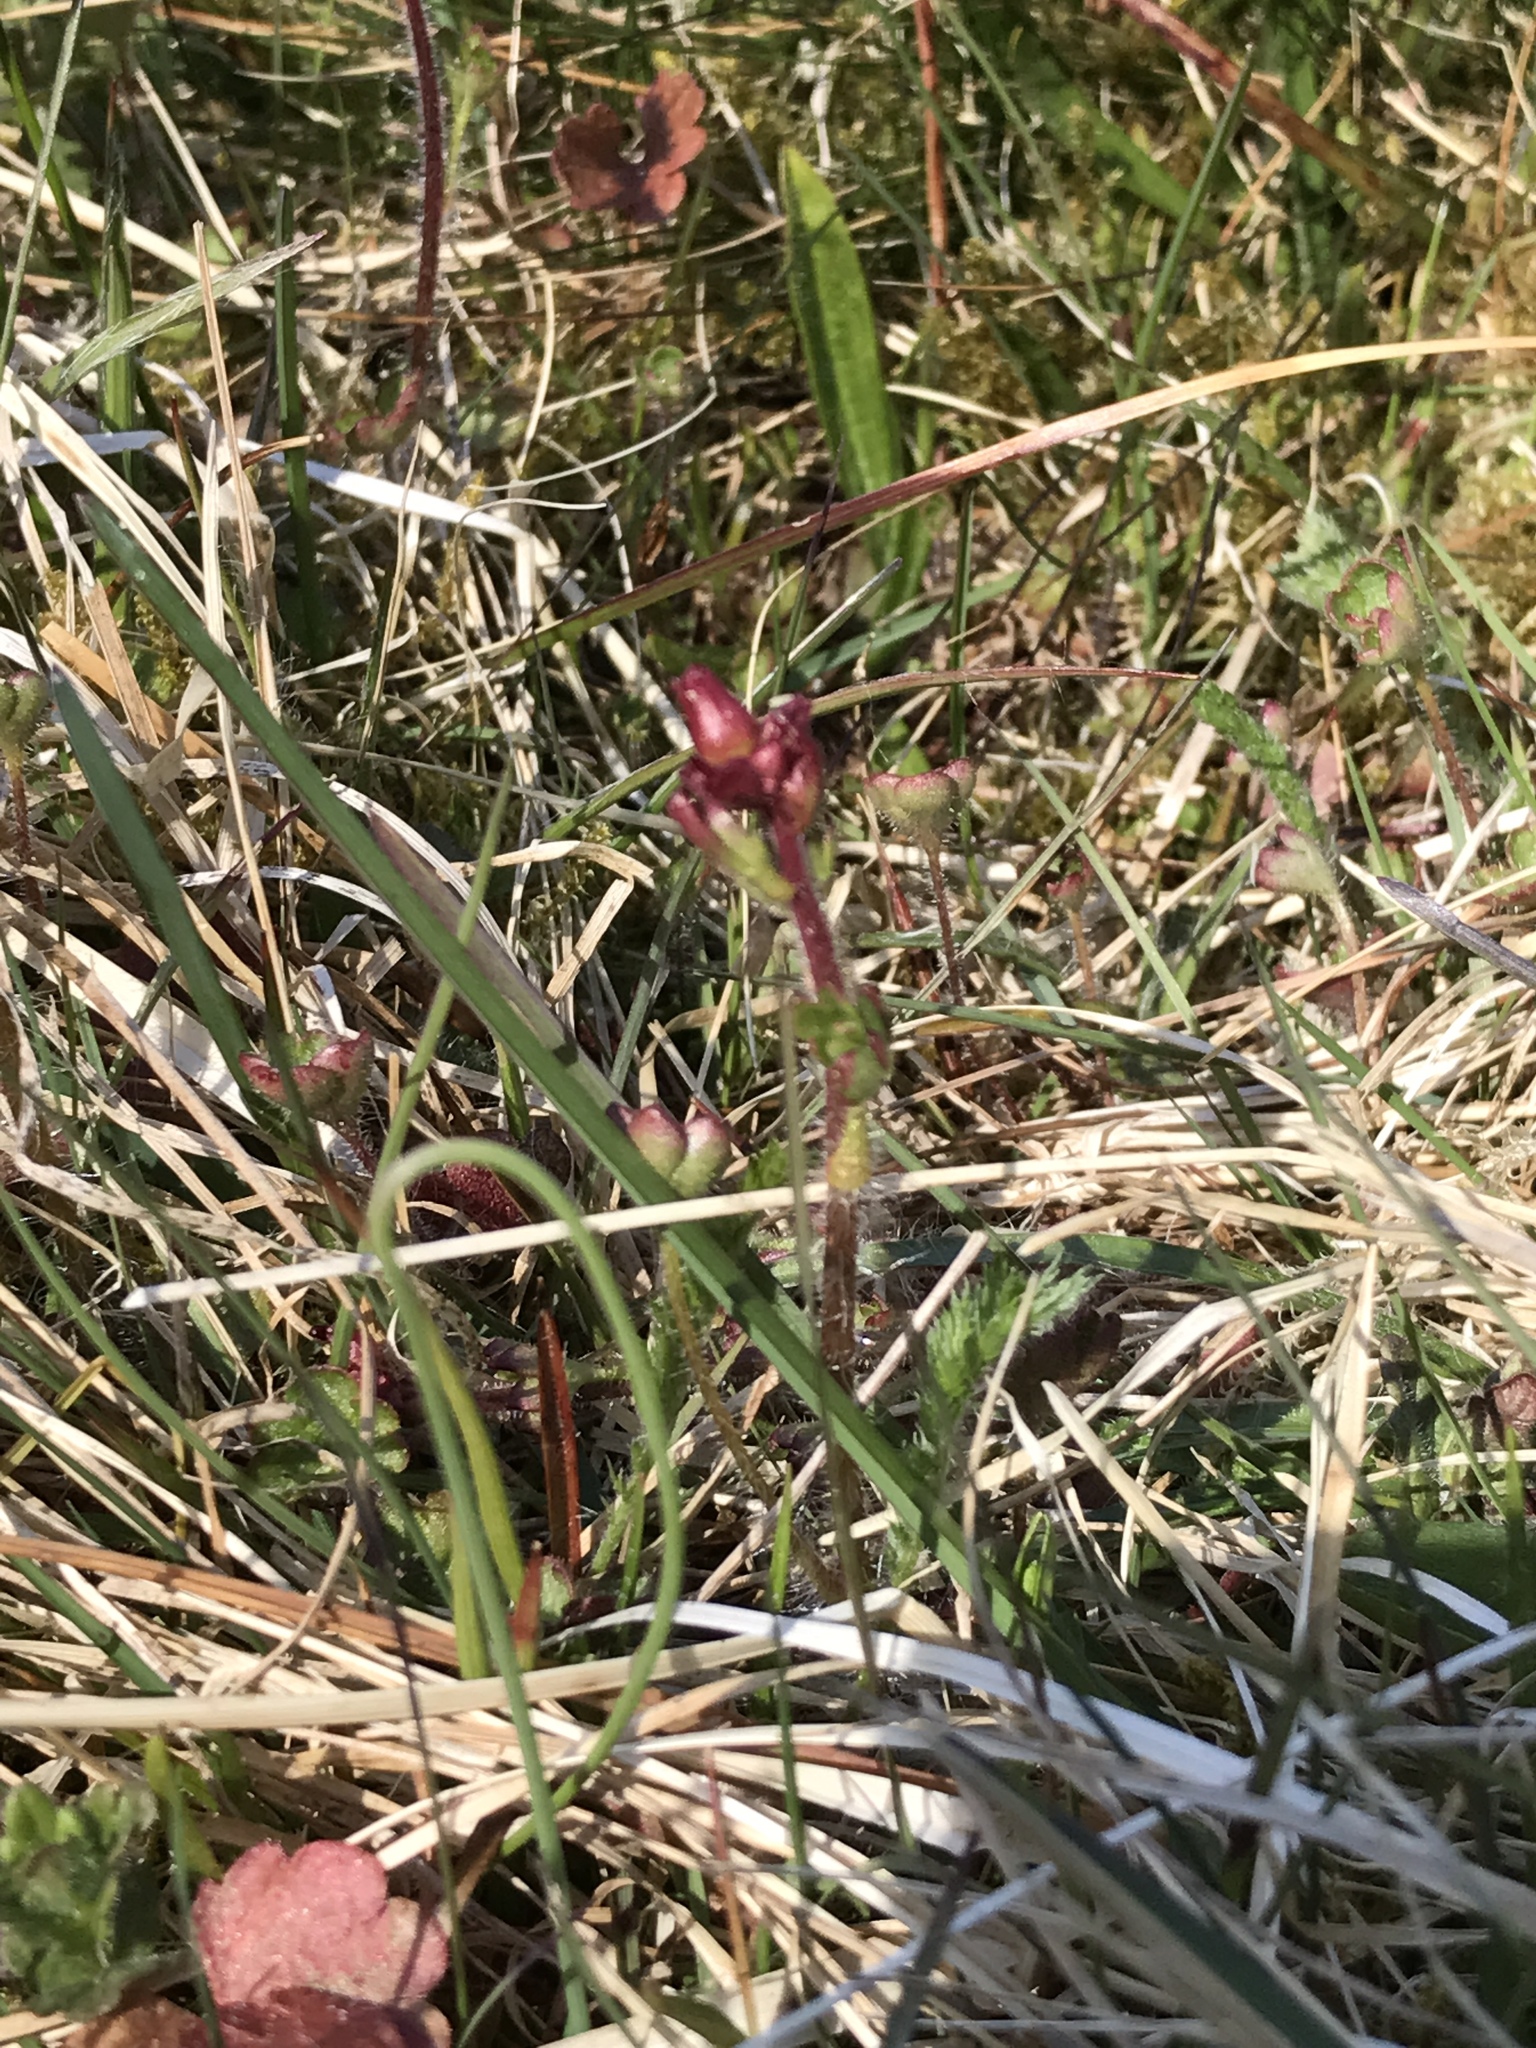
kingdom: Plantae
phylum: Tracheophyta
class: Magnoliopsida
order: Saxifragales
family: Saxifragaceae
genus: Saxifraga
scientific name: Saxifraga granulata
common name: Meadow saxifrage
